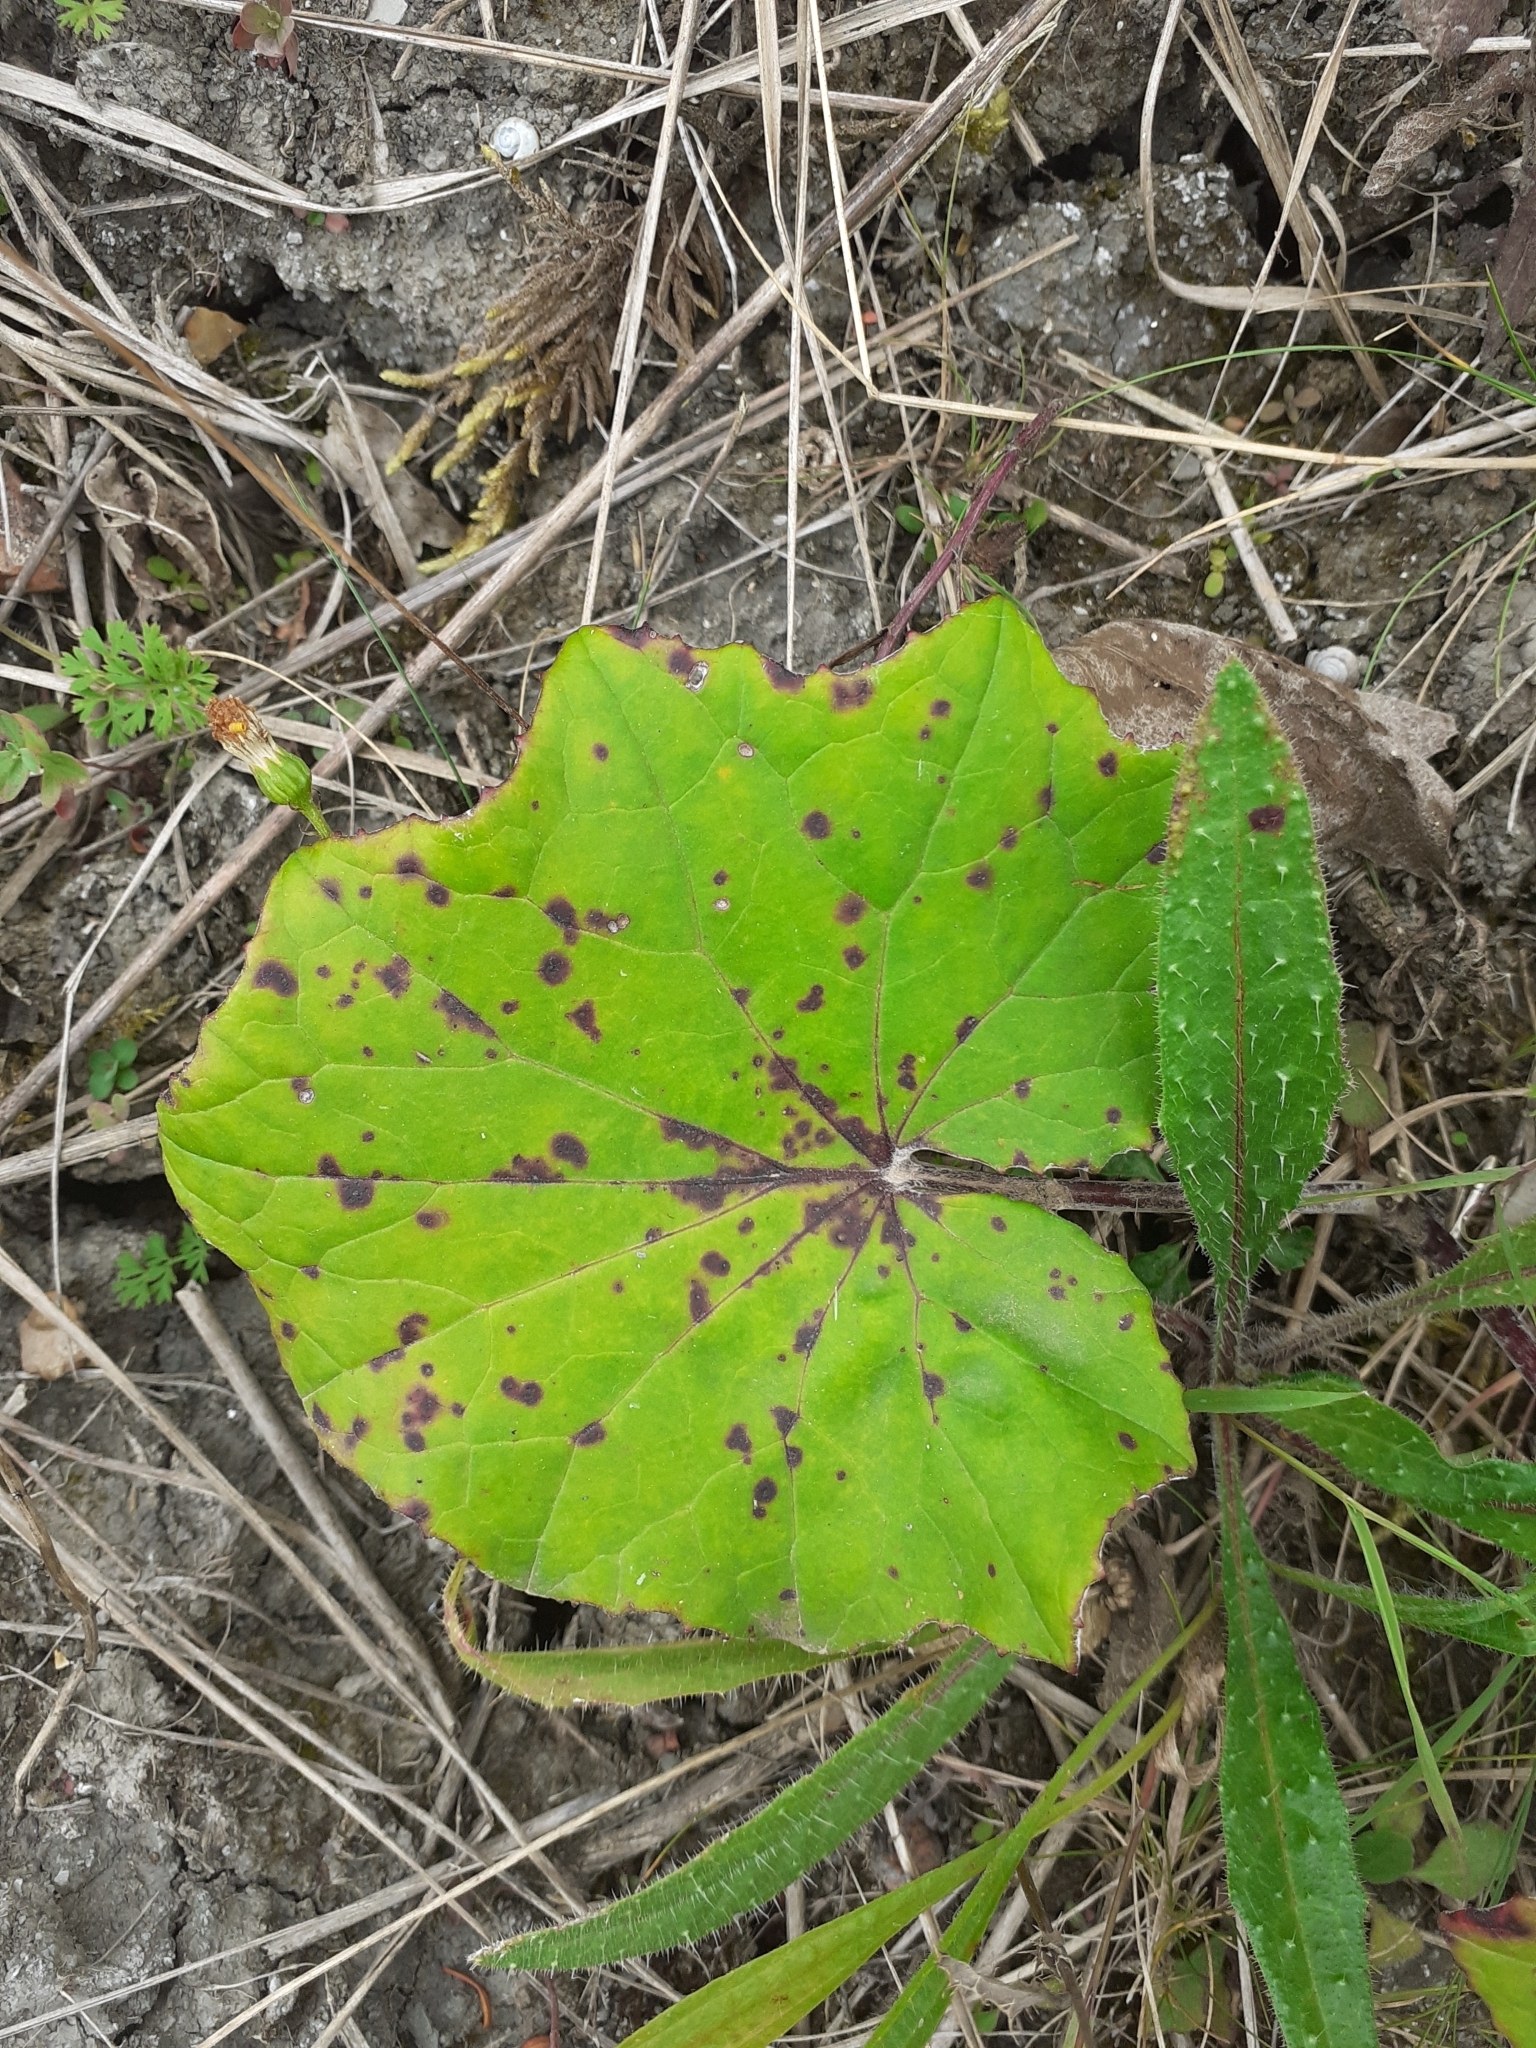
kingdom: Plantae
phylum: Tracheophyta
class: Magnoliopsida
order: Asterales
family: Asteraceae
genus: Tussilago
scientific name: Tussilago farfara
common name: Coltsfoot
